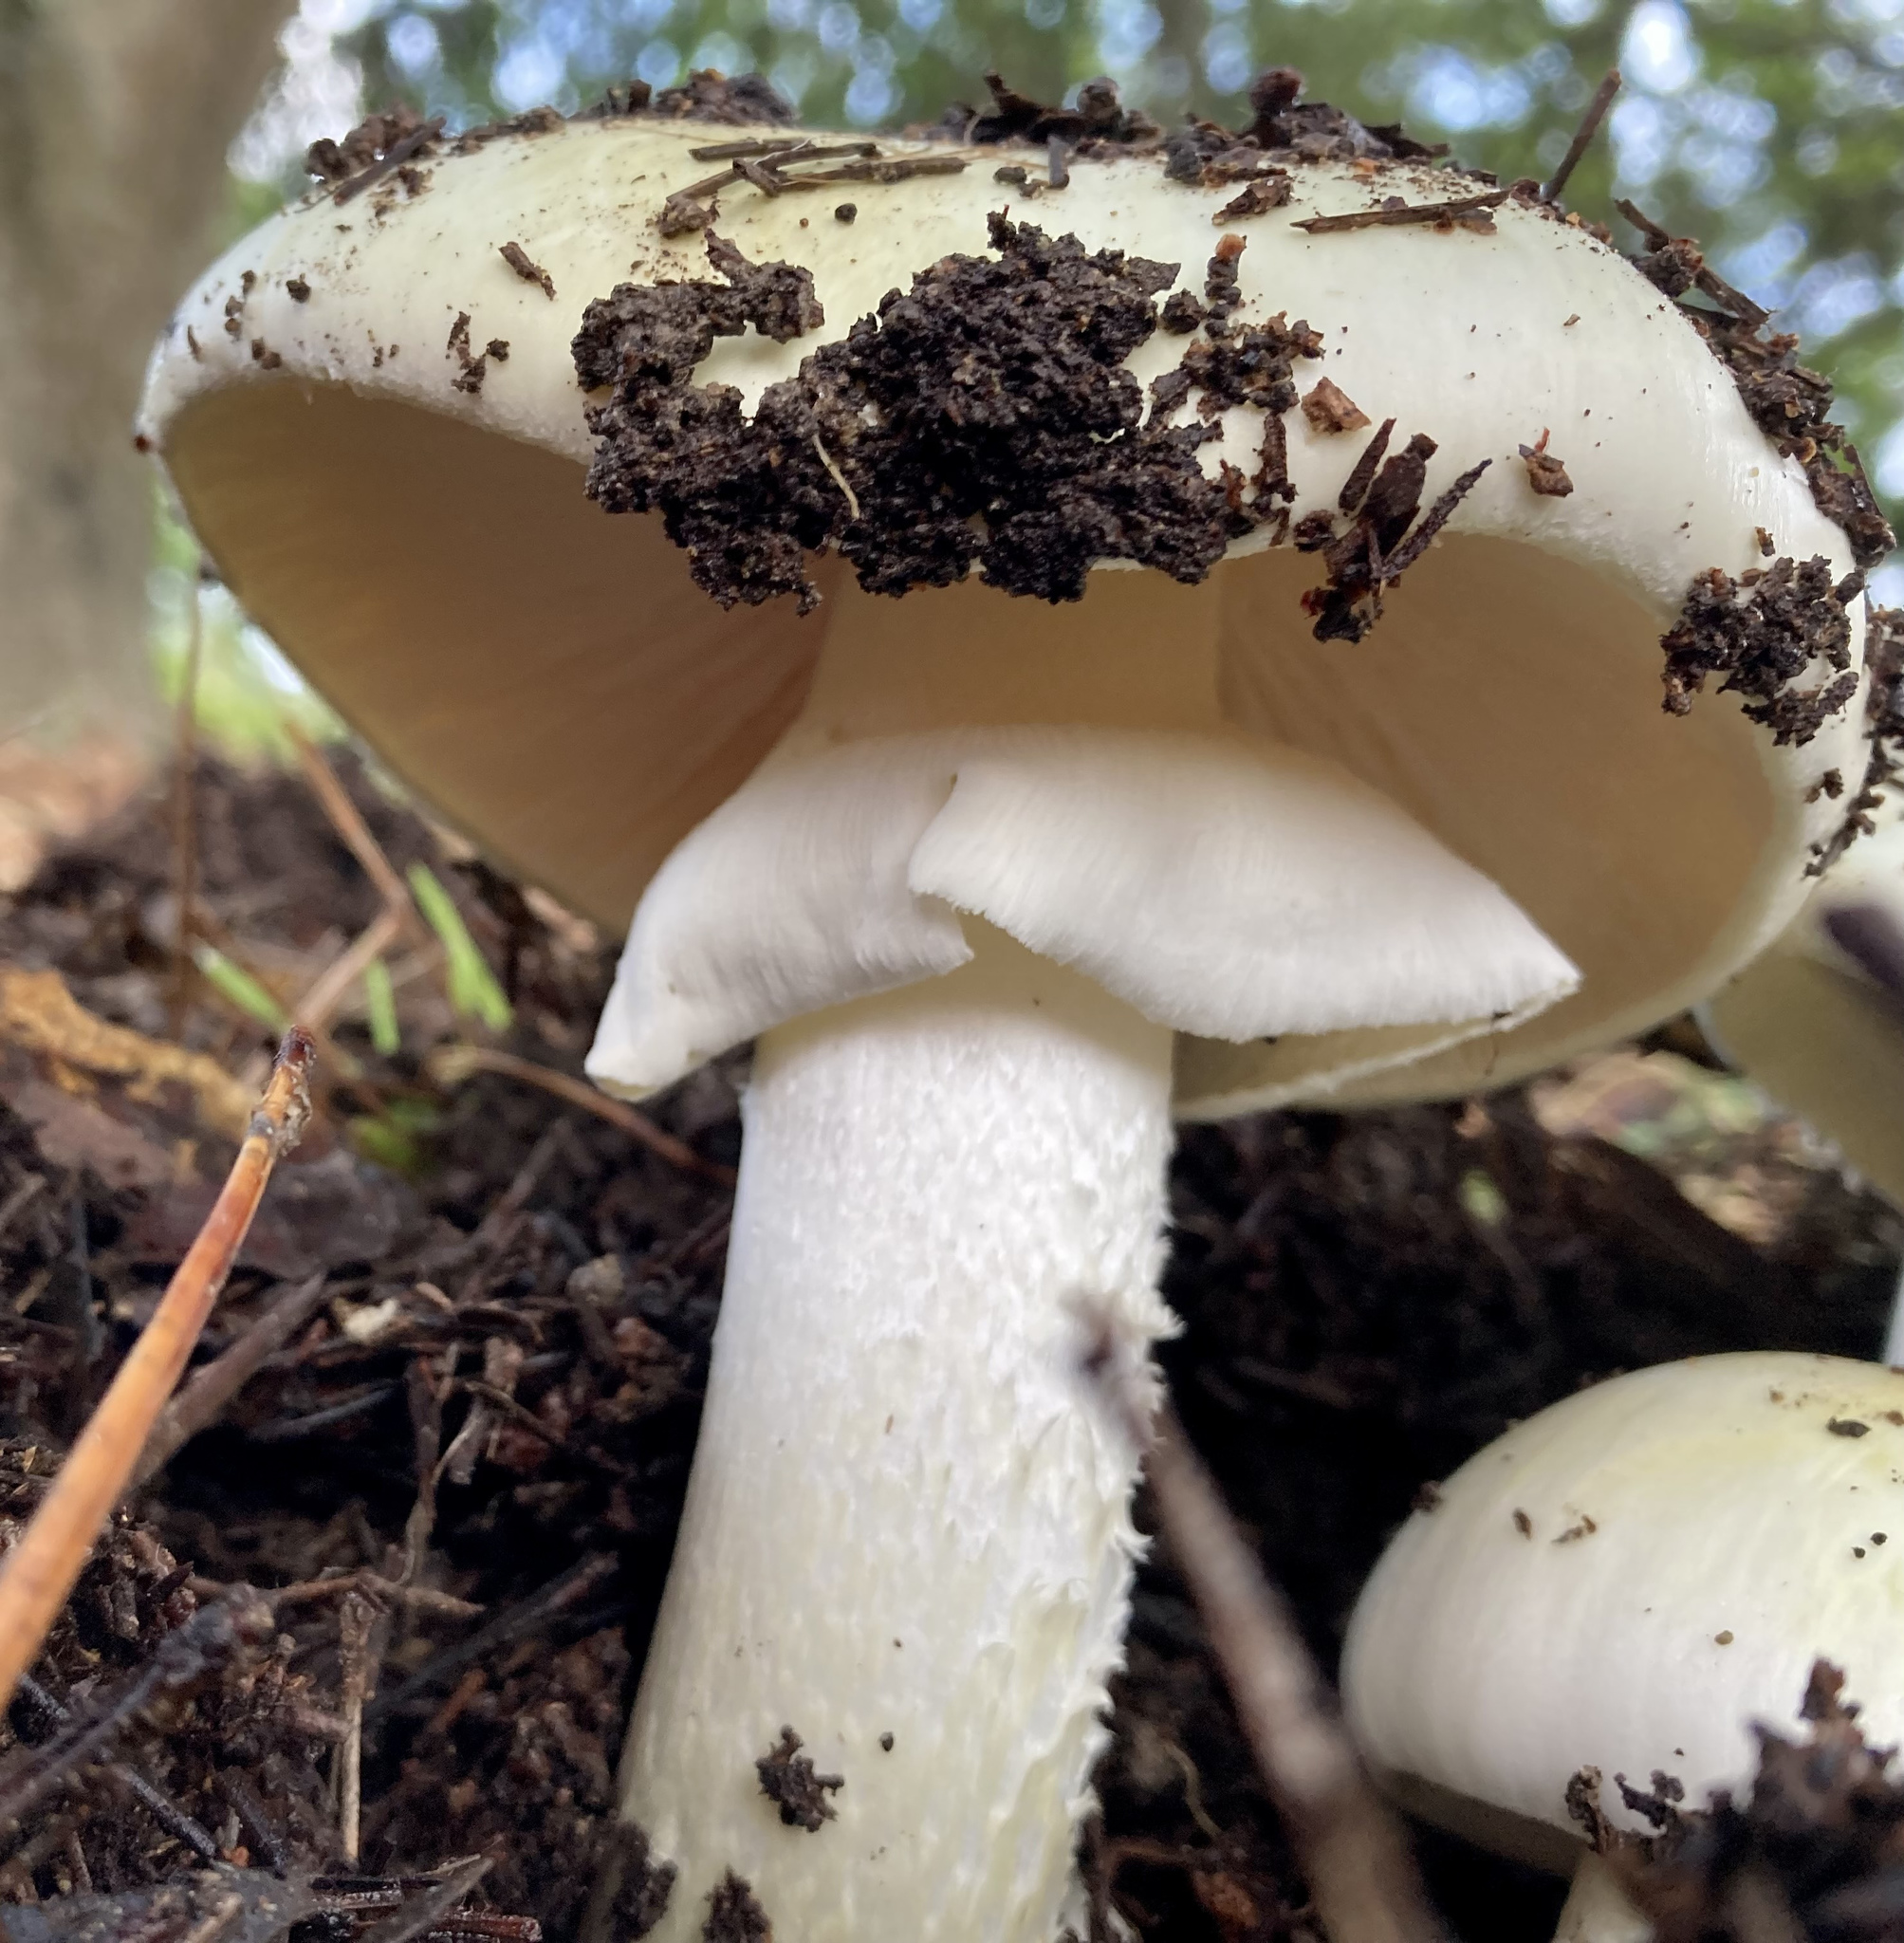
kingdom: Fungi
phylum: Basidiomycota
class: Agaricomycetes
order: Agaricales
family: Amanitaceae
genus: Amanita
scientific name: Amanita phalloides
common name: Death cap
